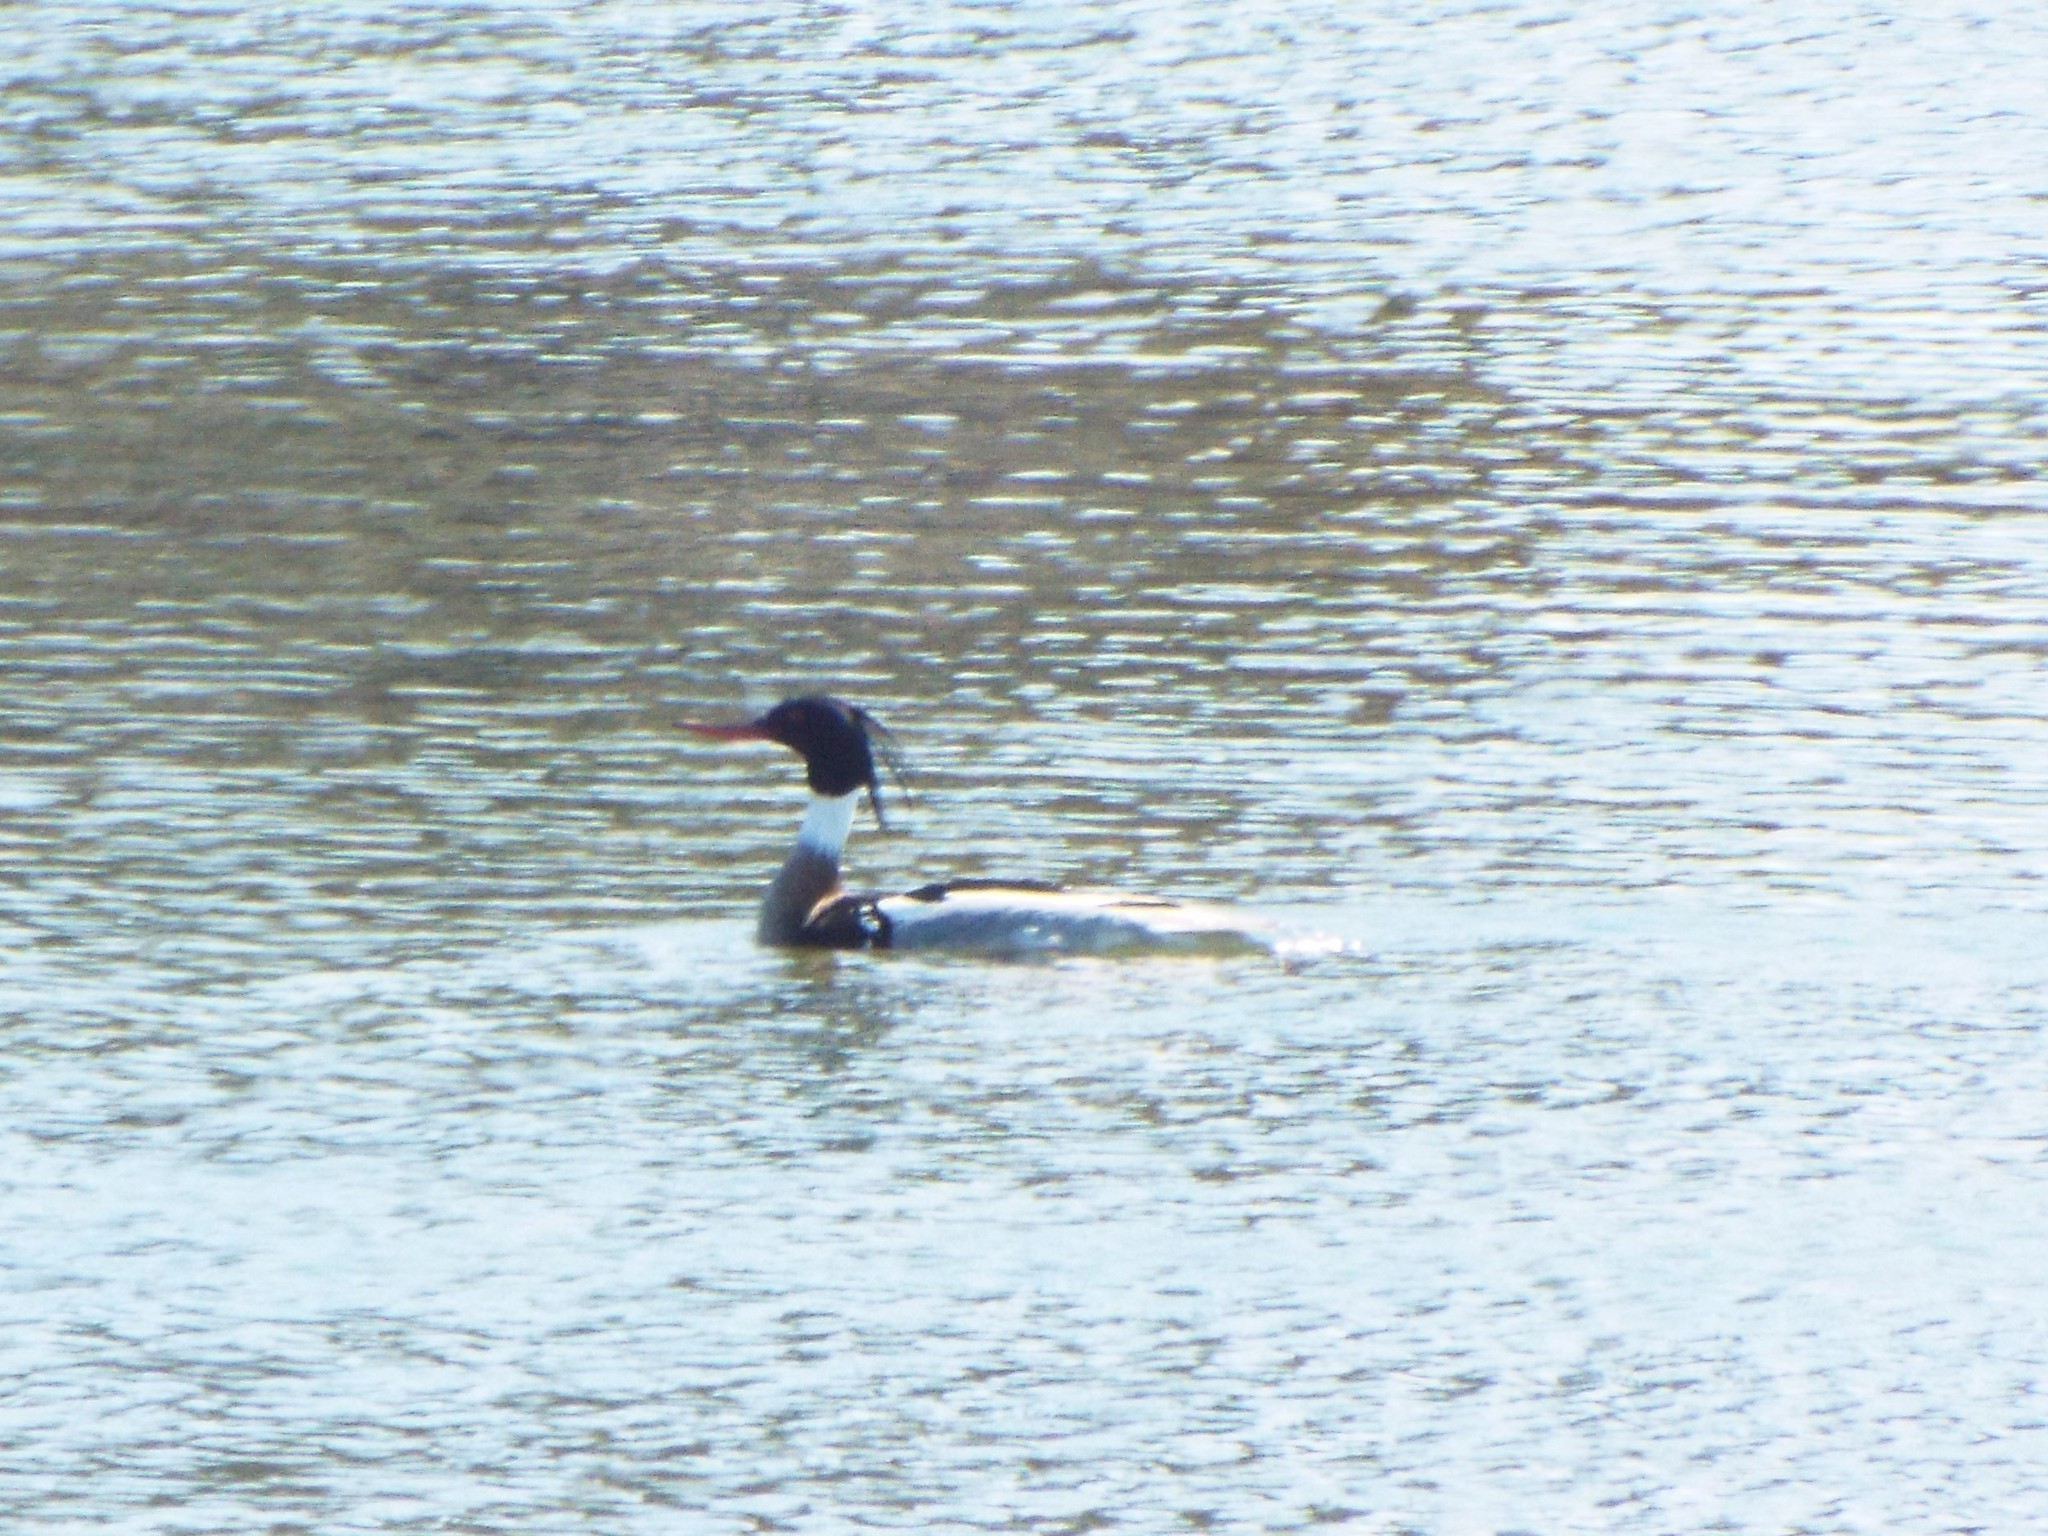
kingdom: Animalia
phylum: Chordata
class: Aves
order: Anseriformes
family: Anatidae
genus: Mergus
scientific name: Mergus serrator
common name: Red-breasted merganser
